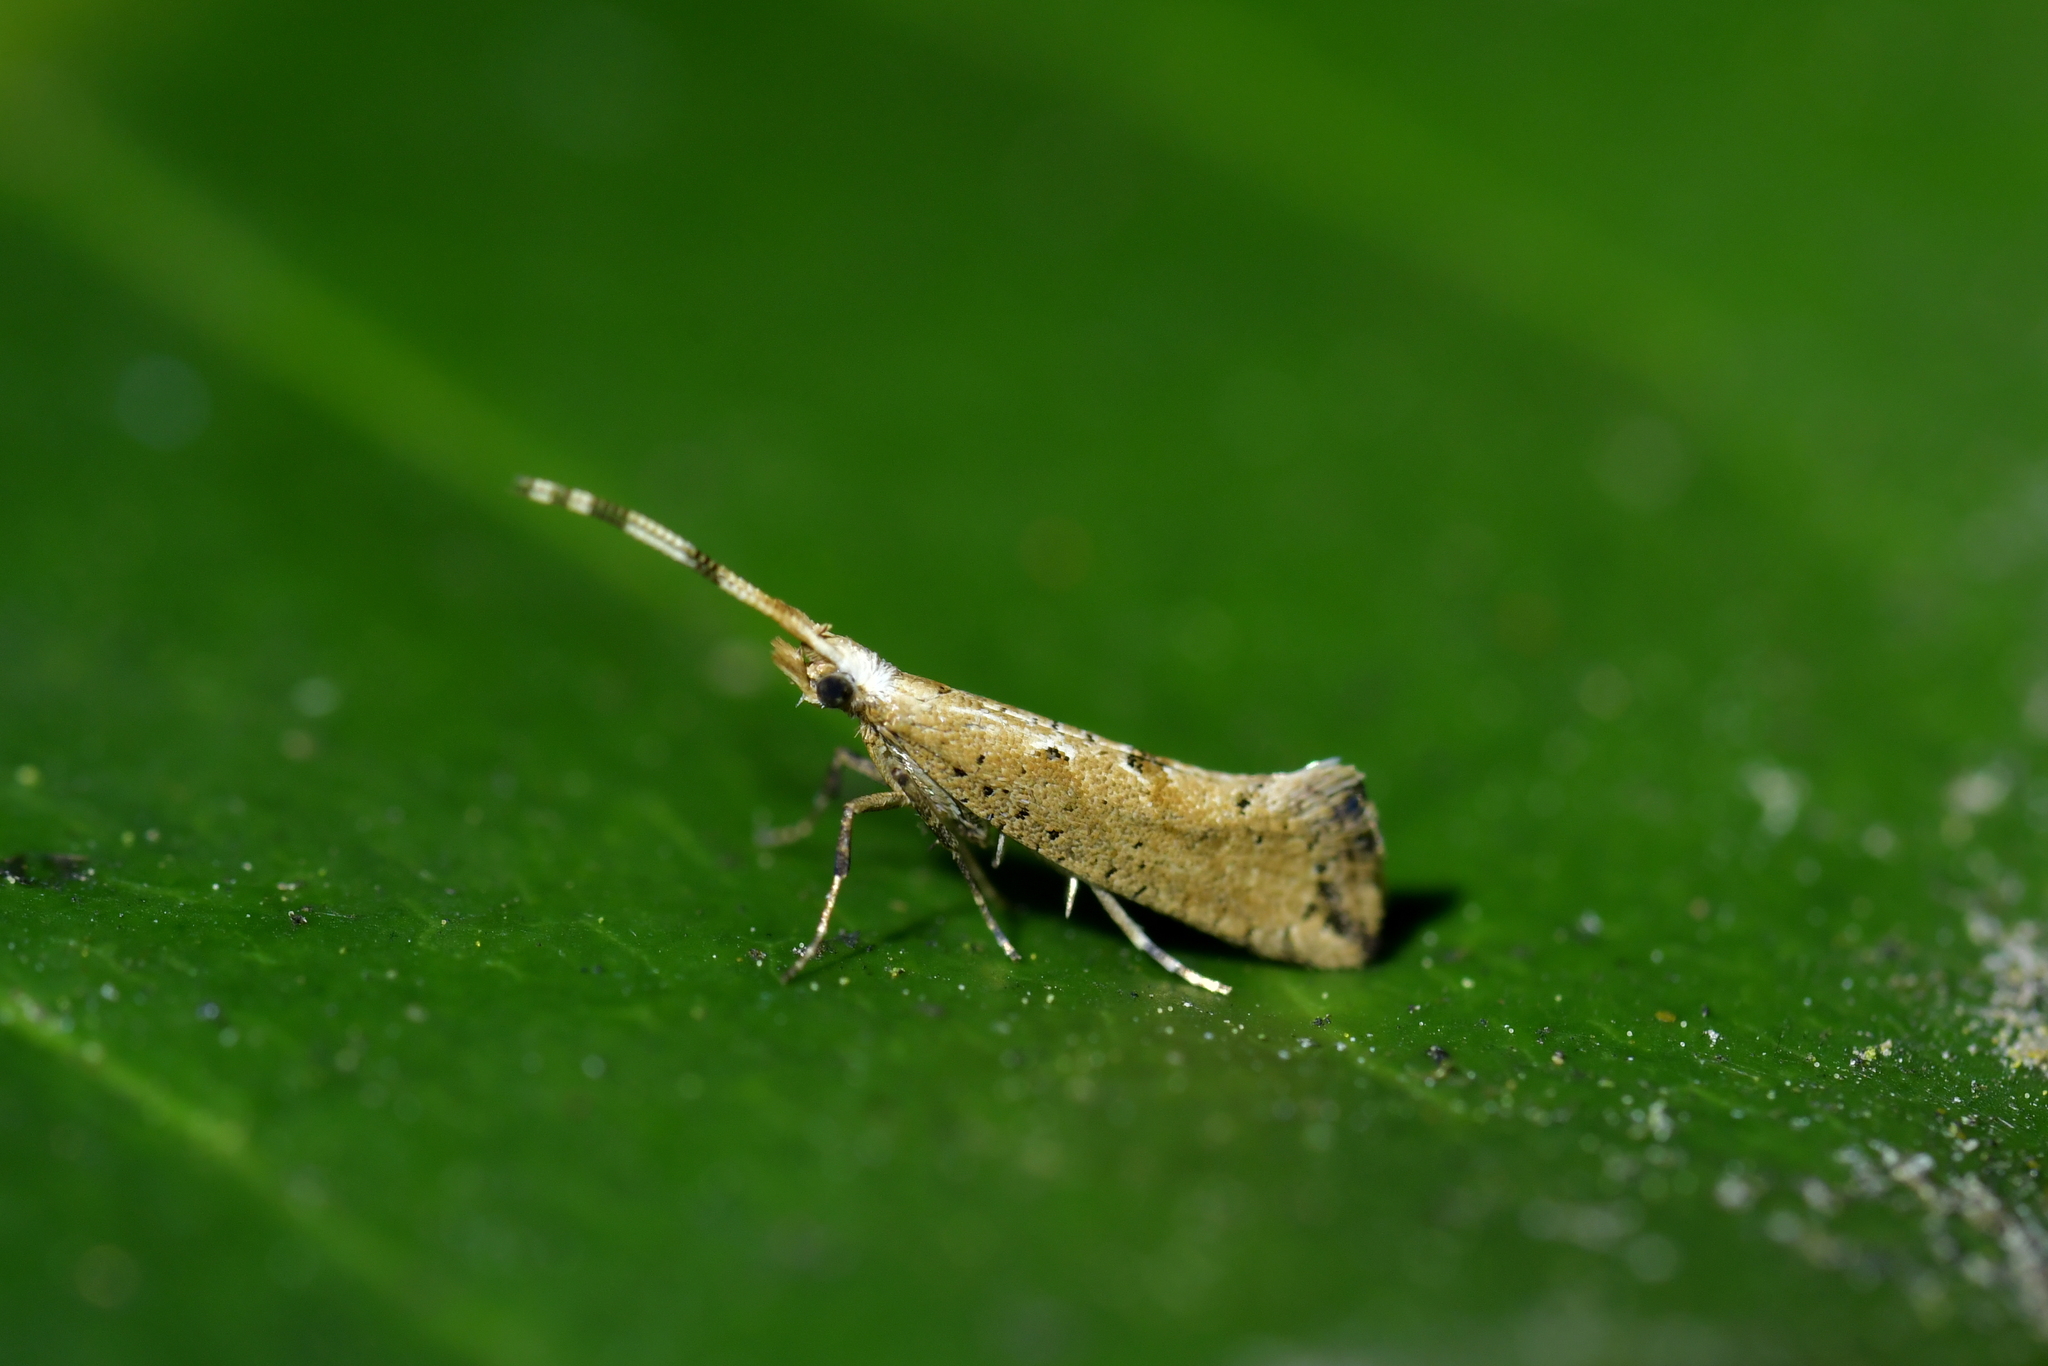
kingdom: Animalia
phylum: Arthropoda
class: Insecta
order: Lepidoptera
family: Plutellidae
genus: Leuroperna
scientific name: Leuroperna sera
